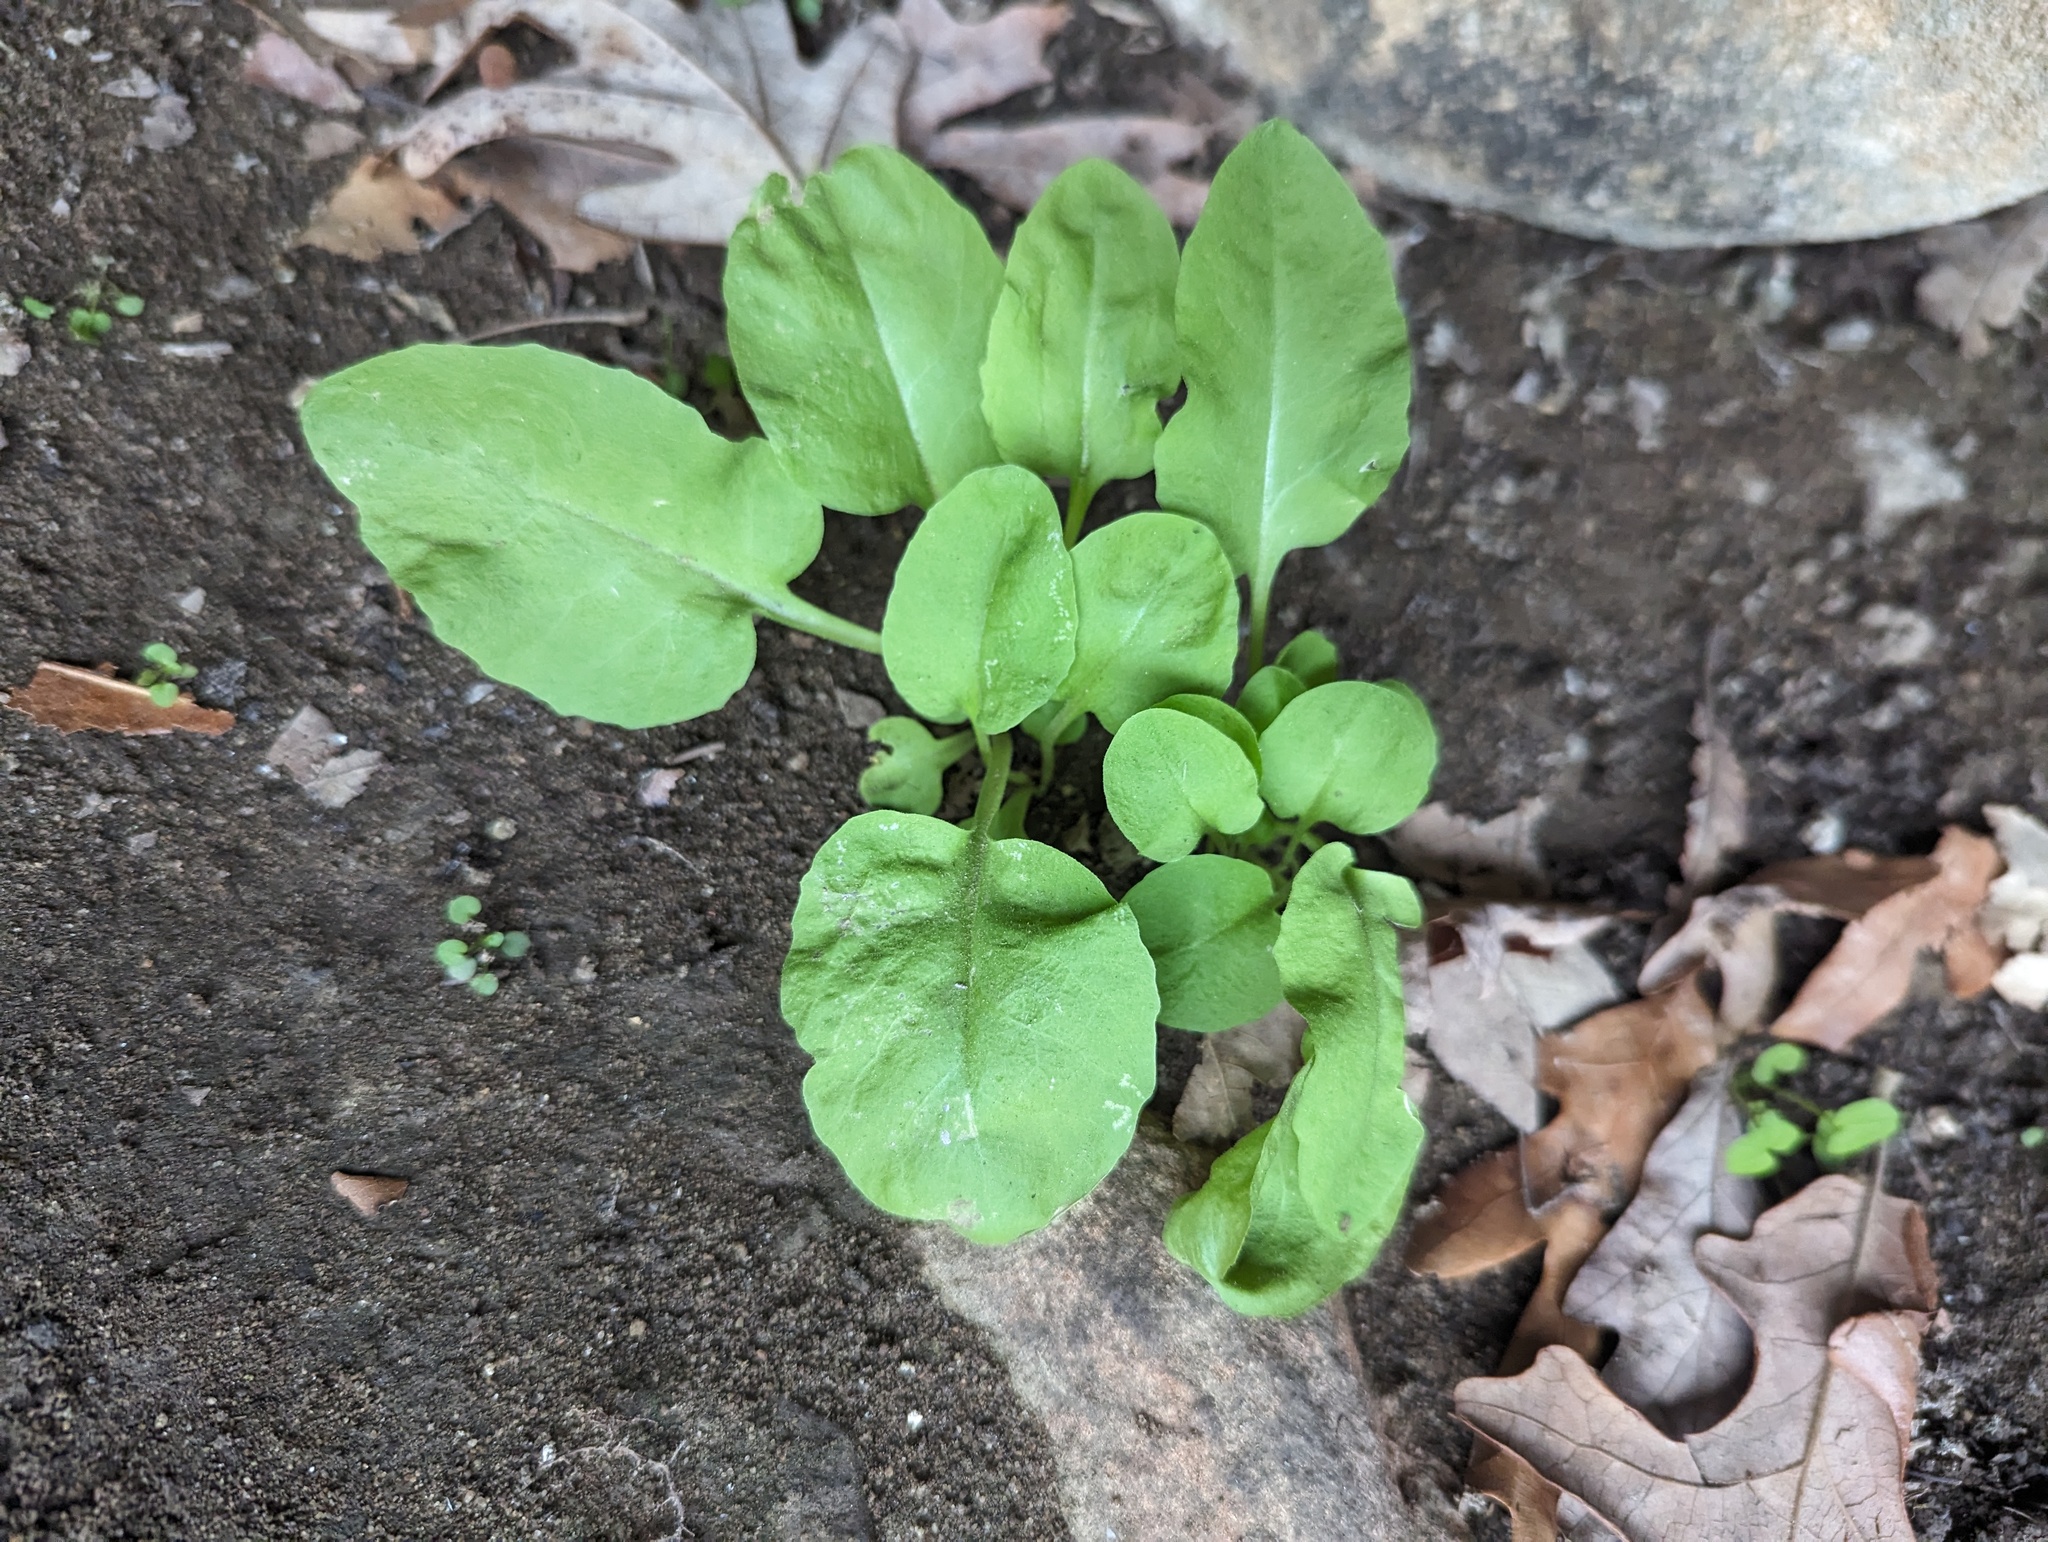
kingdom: Plantae
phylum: Tracheophyta
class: Magnoliopsida
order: Ericales
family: Primulaceae
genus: Dodecatheon
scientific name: Dodecatheon frenchii
